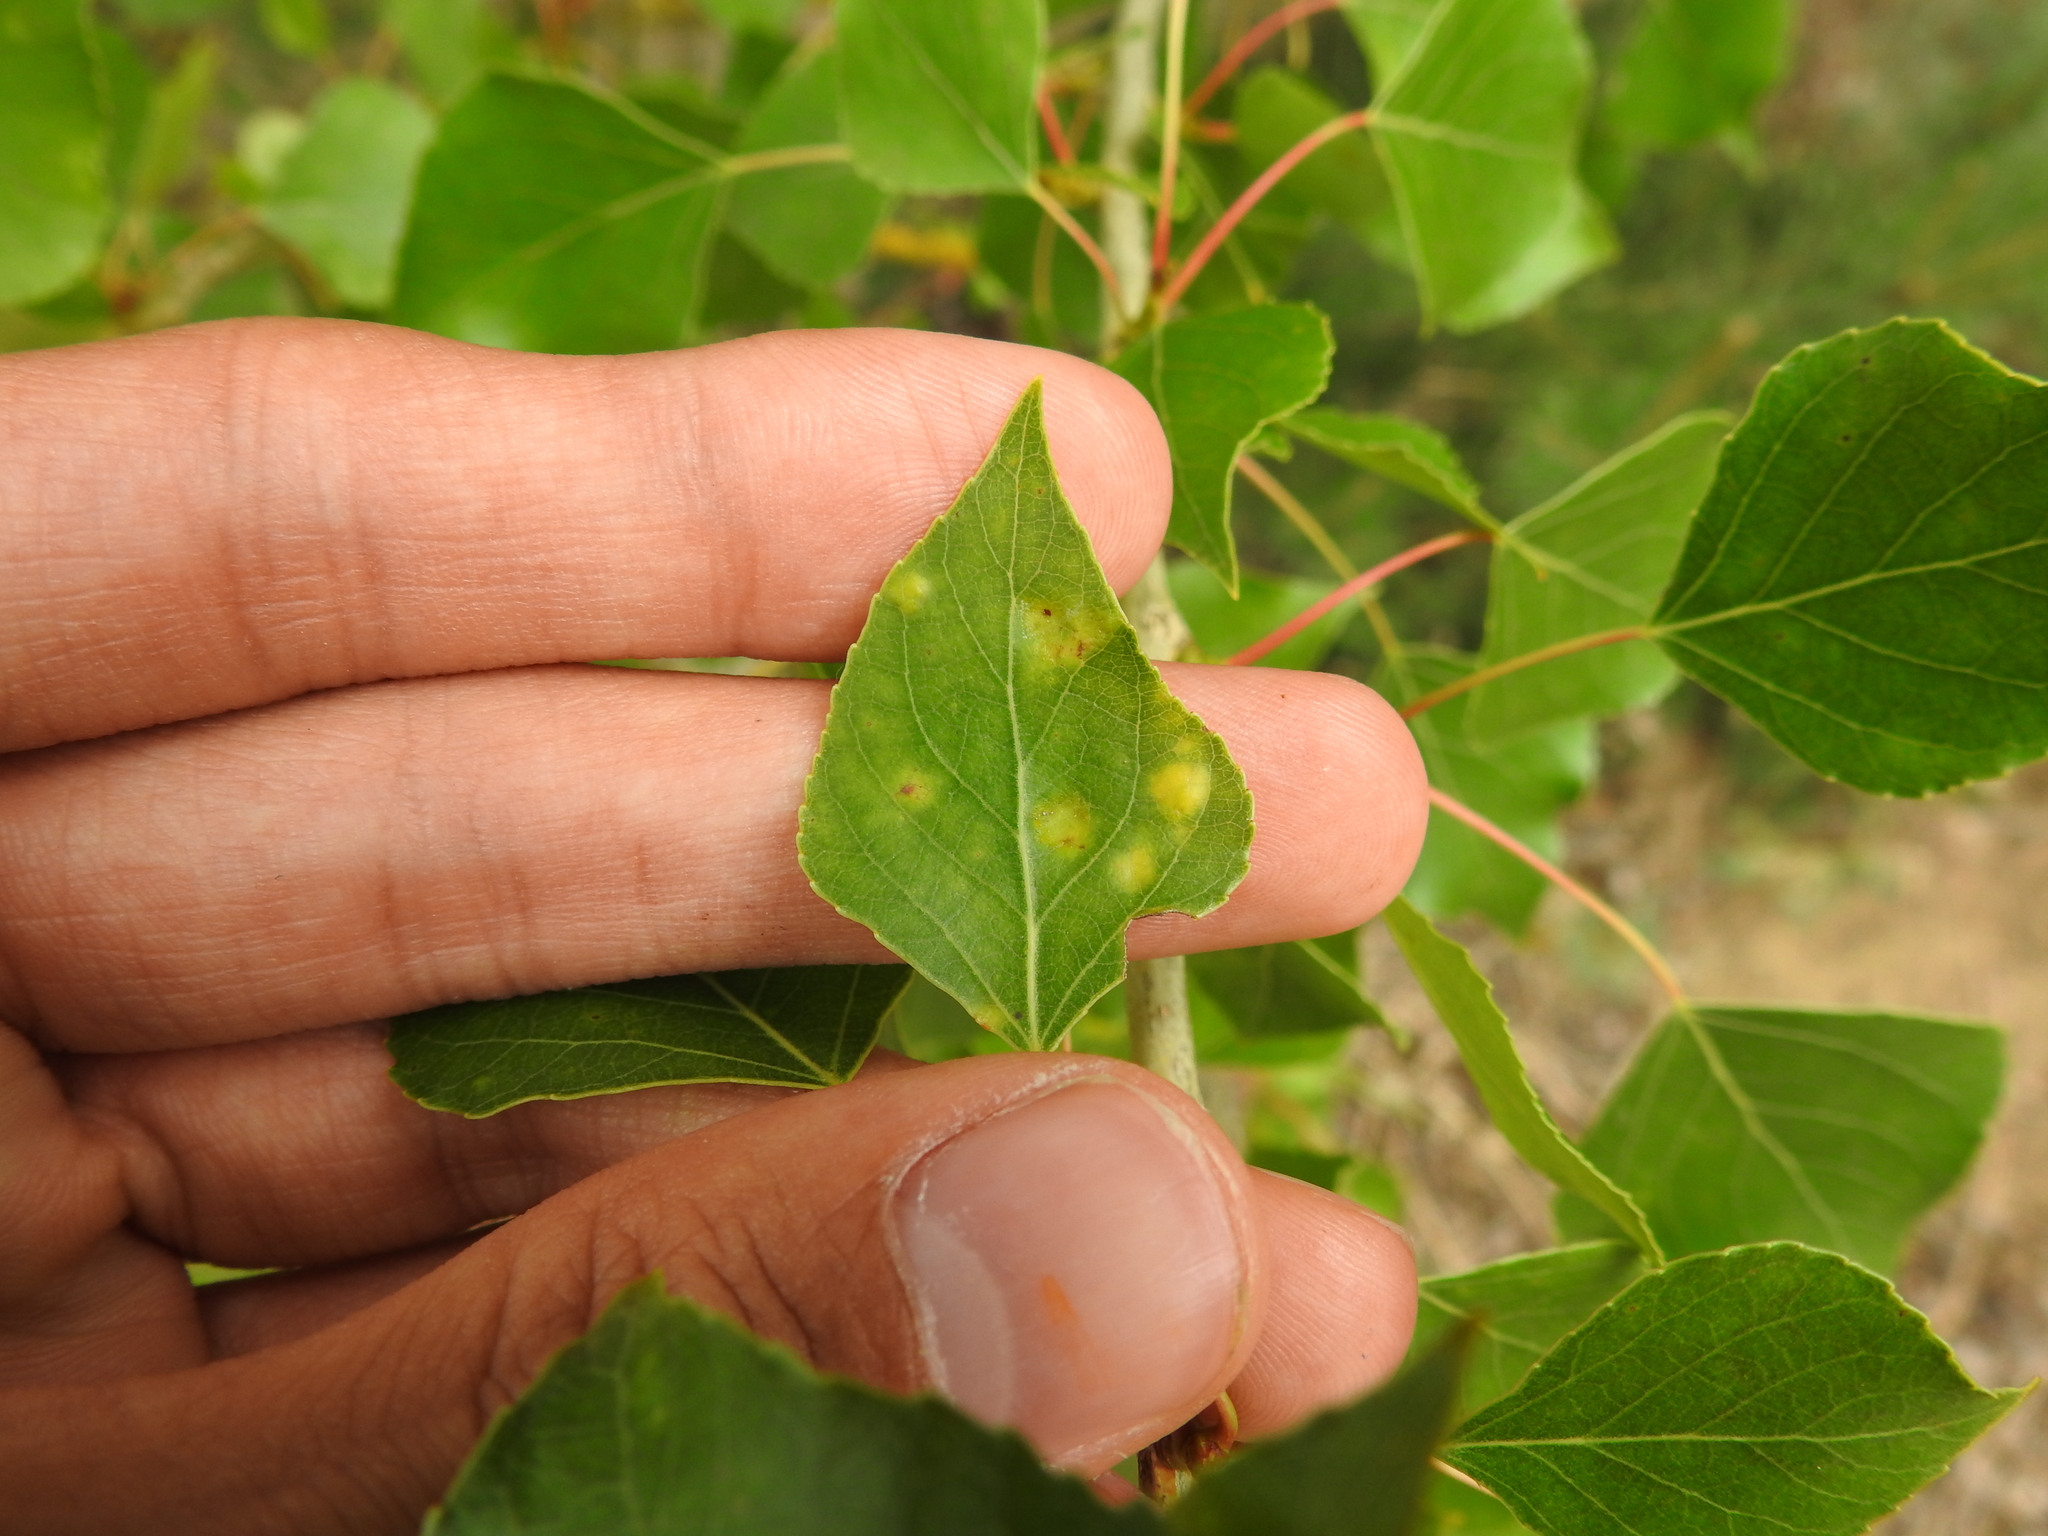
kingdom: Fungi
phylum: Ascomycota
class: Taphrinomycetes
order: Taphrinales
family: Taphrinaceae
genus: Taphrina
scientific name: Taphrina populina
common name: Poplar leaf curl
